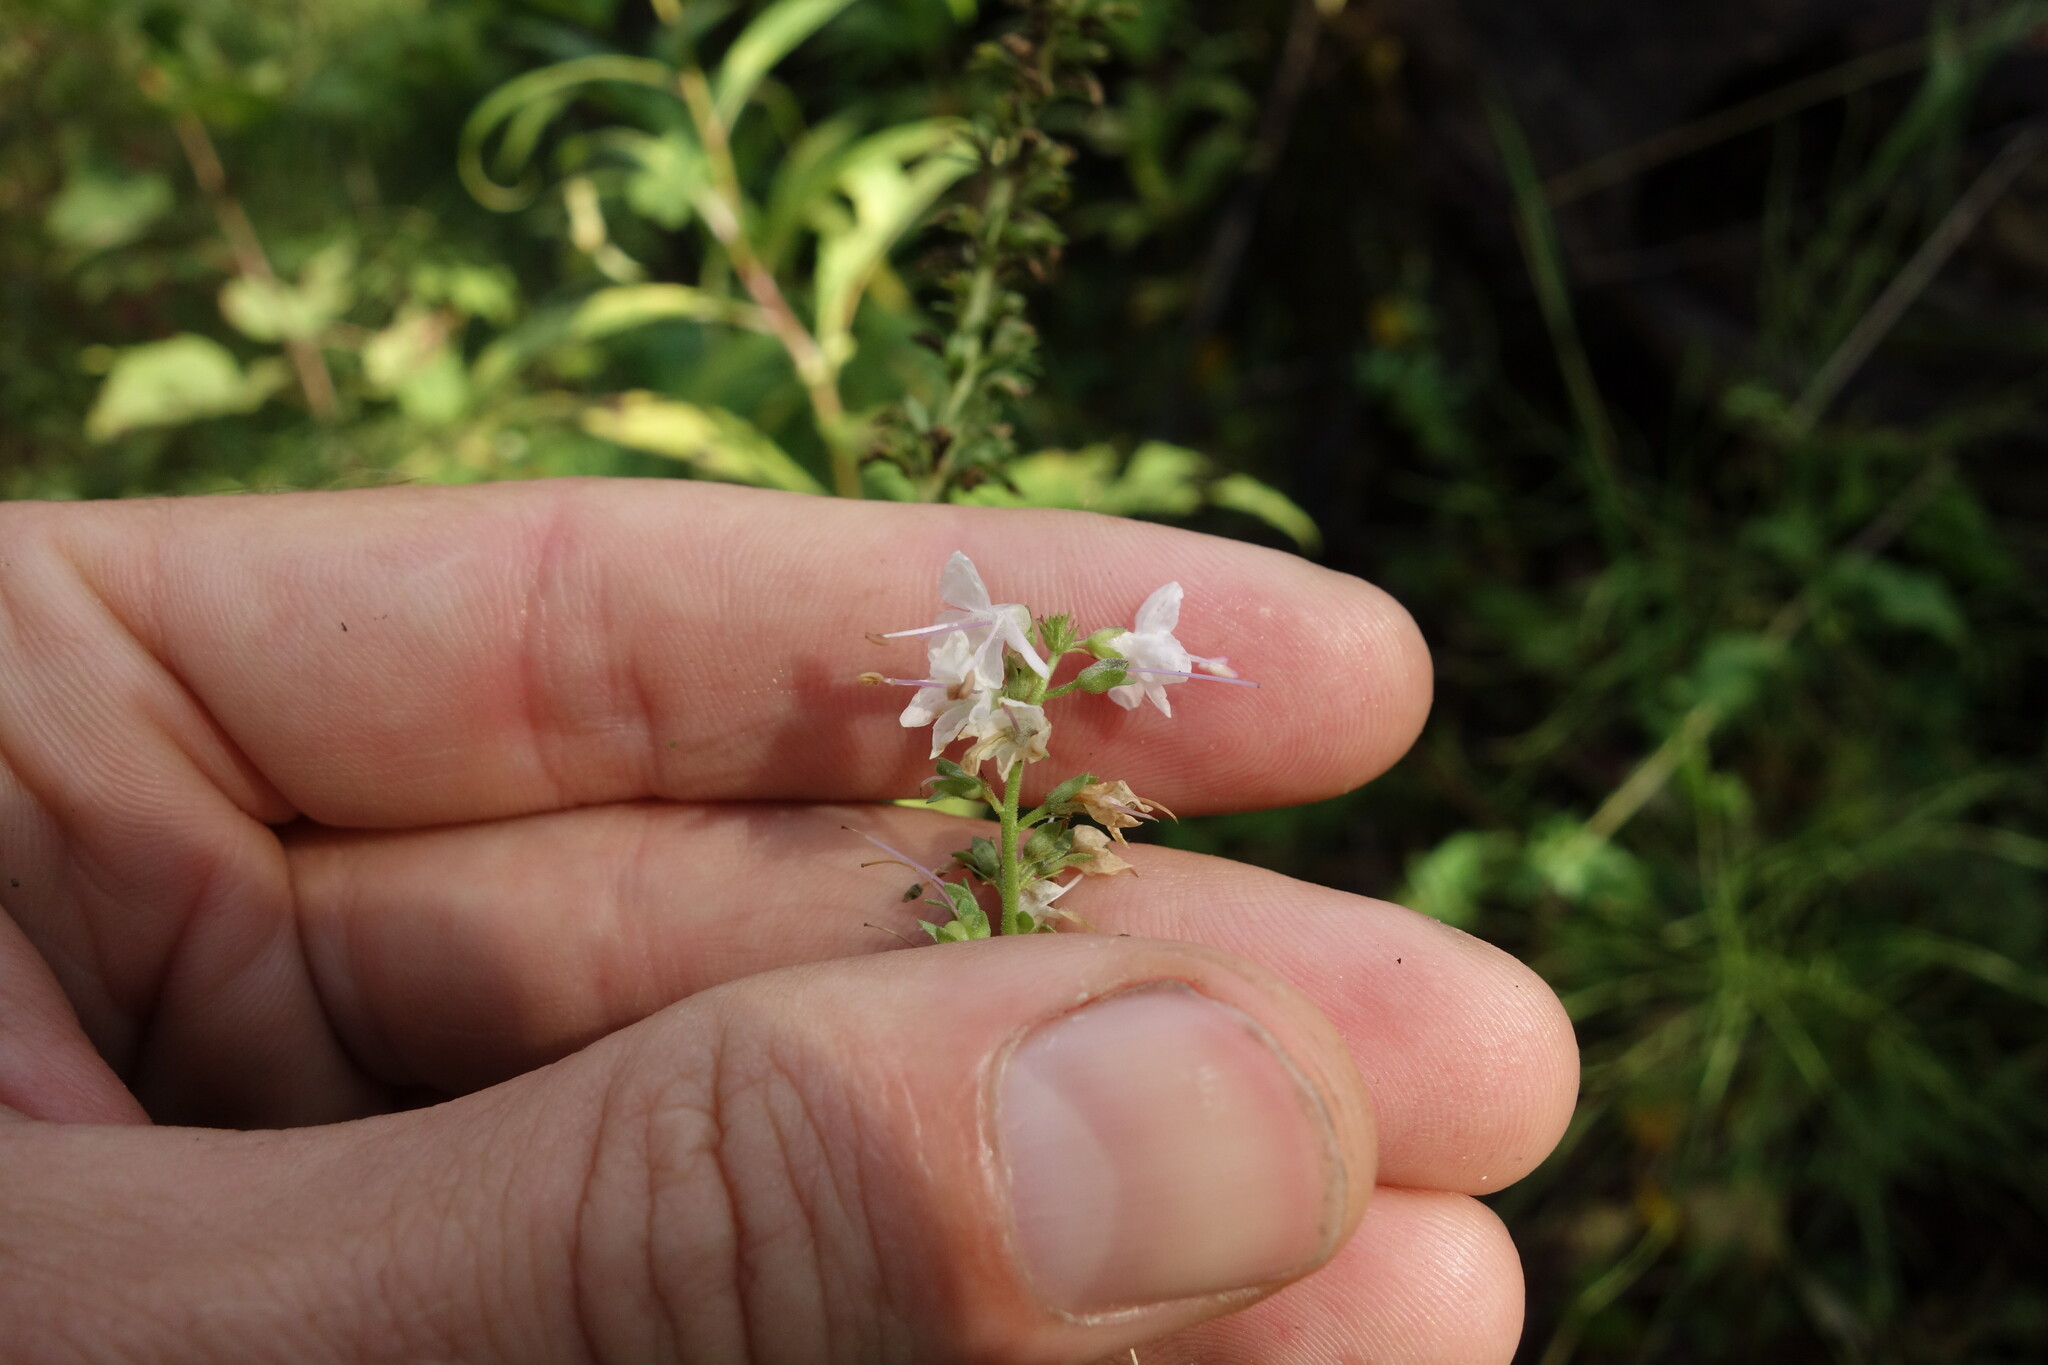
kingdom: Plantae
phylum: Tracheophyta
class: Magnoliopsida
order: Lamiales
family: Plantaginaceae
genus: Veronica
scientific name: Veronica daurica
